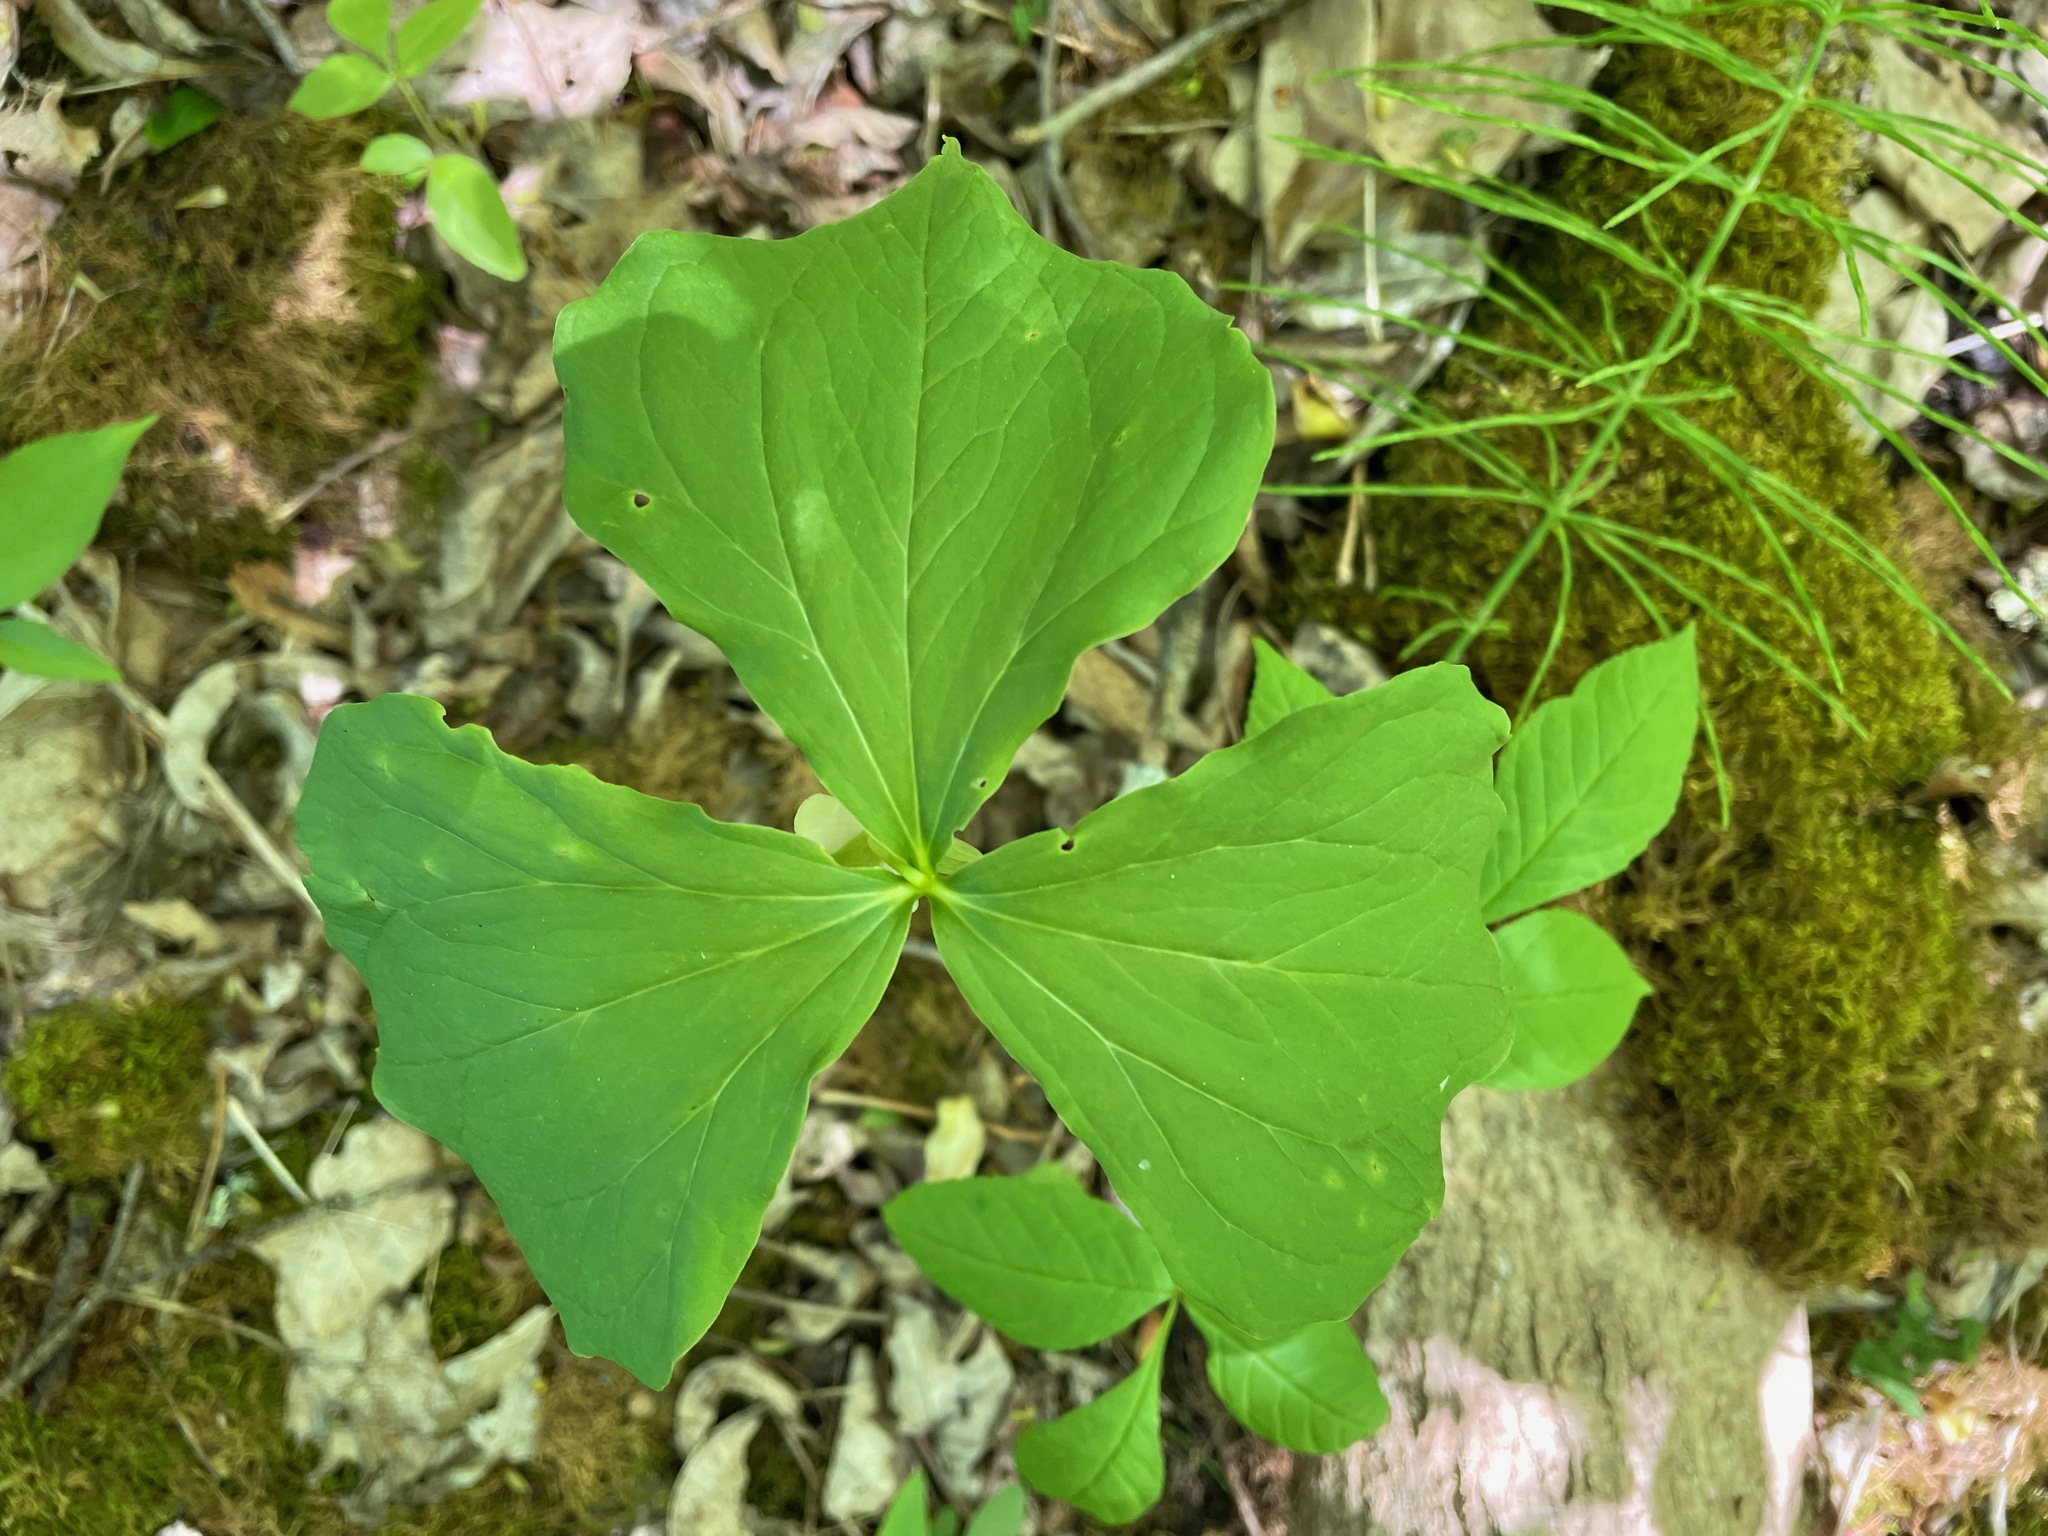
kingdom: Plantae
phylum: Tracheophyta
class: Liliopsida
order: Liliales
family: Melanthiaceae
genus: Trillium
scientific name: Trillium cernuum
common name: Nodding trillium
